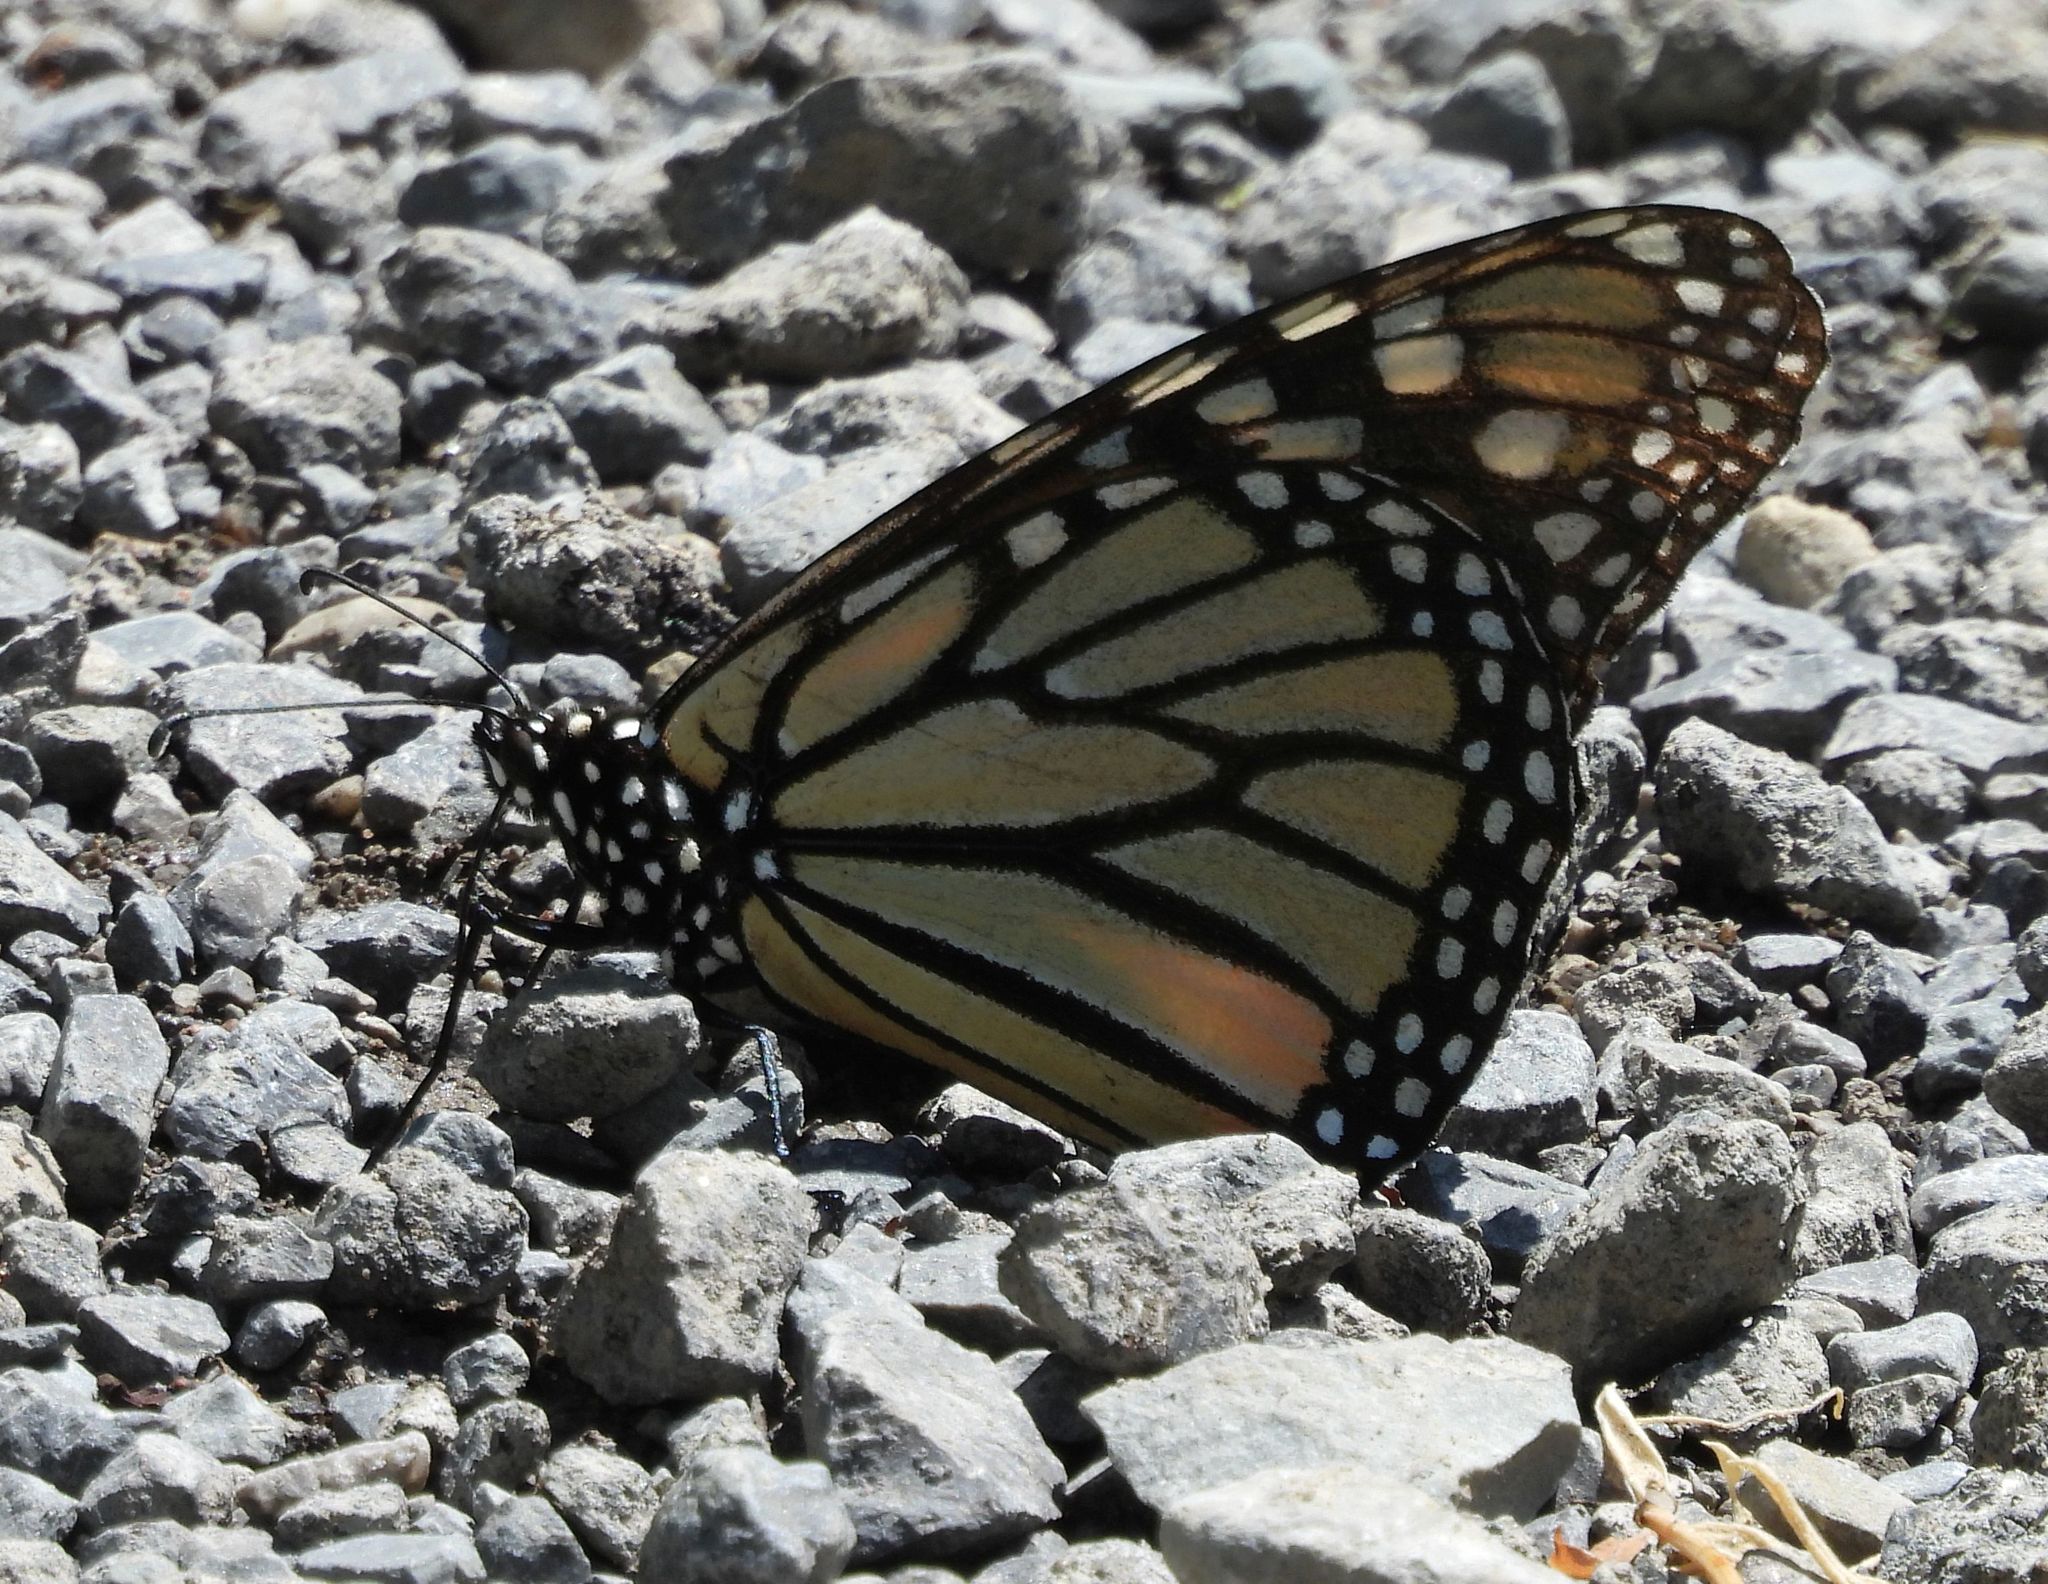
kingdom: Animalia
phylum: Arthropoda
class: Insecta
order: Lepidoptera
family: Nymphalidae
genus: Danaus
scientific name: Danaus plexippus
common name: Monarch
